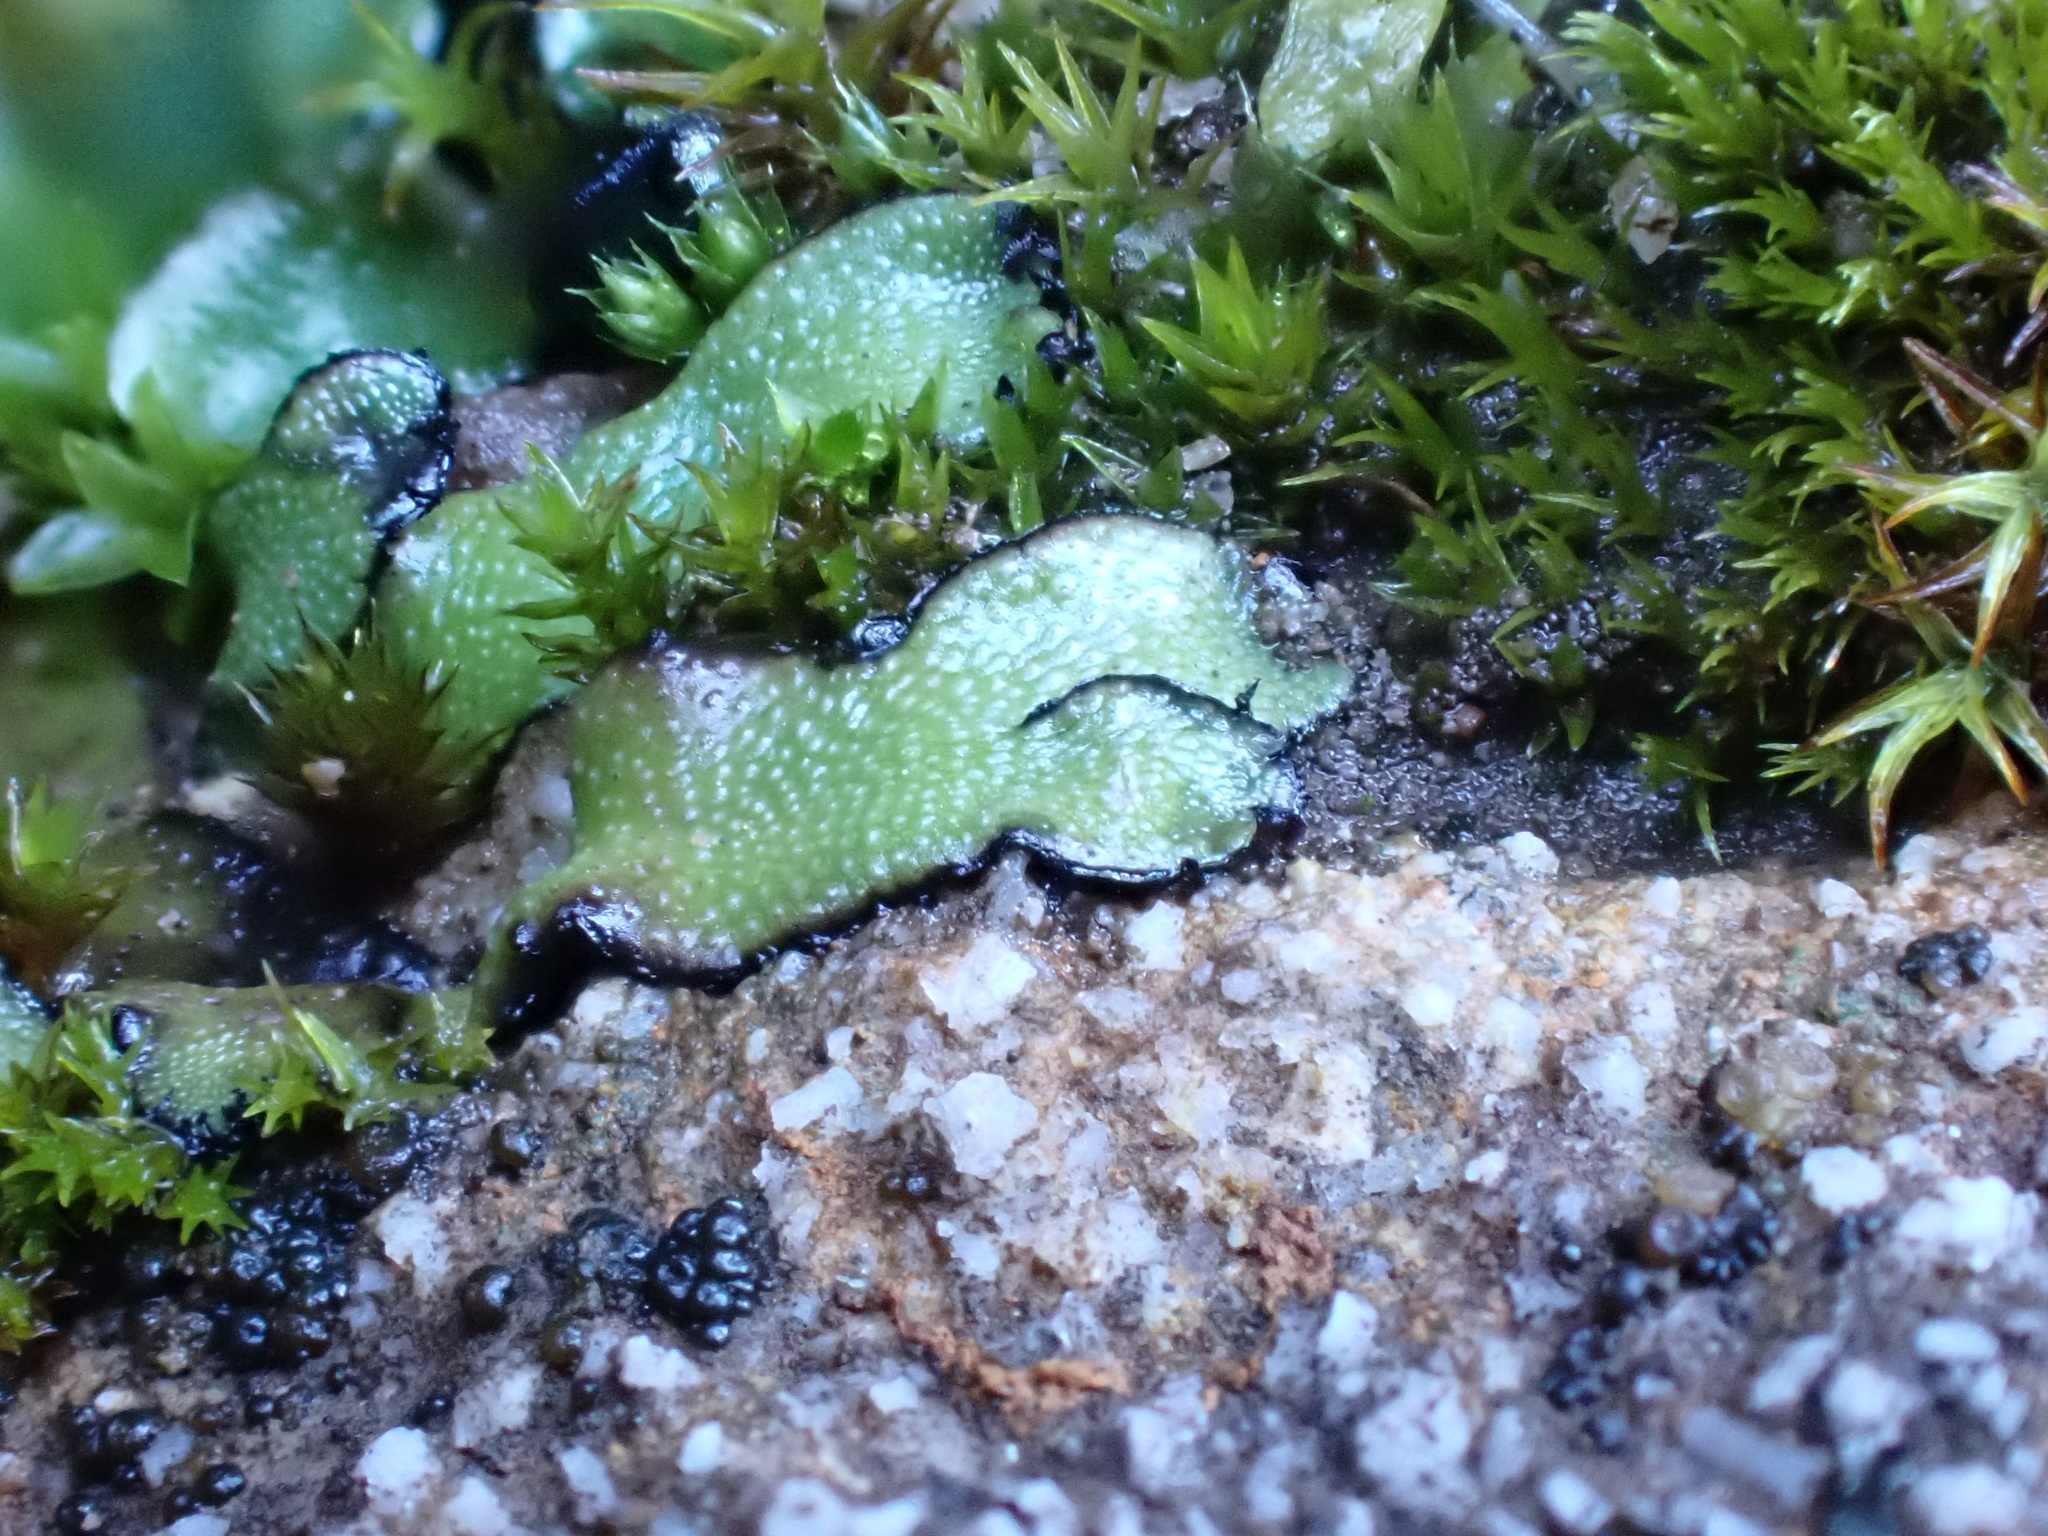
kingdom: Plantae
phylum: Marchantiophyta
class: Marchantiopsida
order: Marchantiales
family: Targioniaceae
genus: Targionia
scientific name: Targionia lorbeeriana
